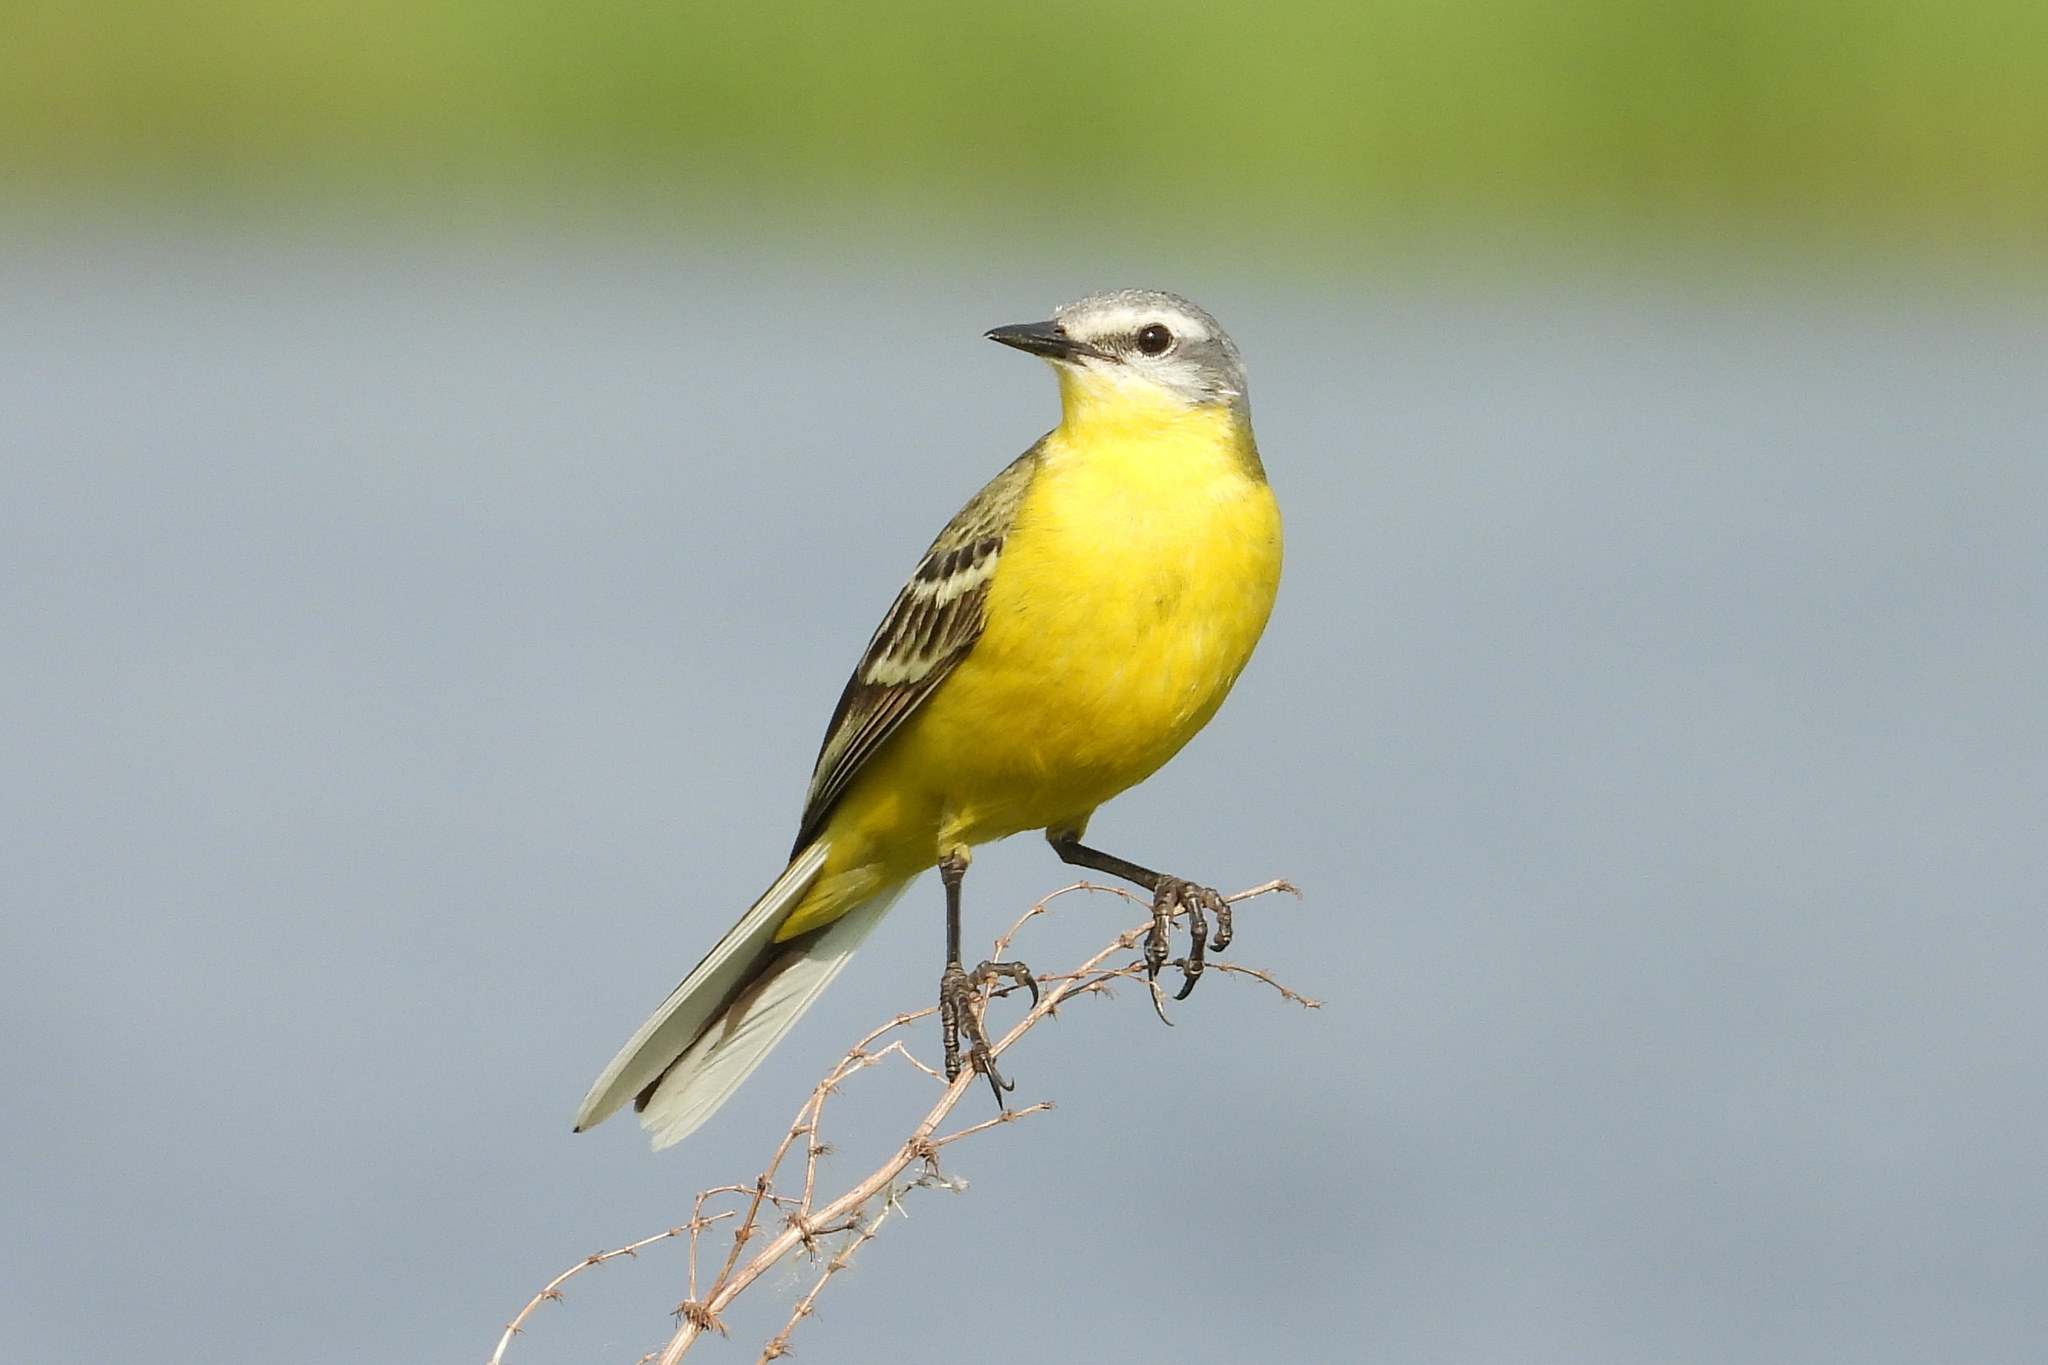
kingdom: Animalia
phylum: Chordata
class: Aves
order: Passeriformes
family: Motacillidae
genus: Motacilla
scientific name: Motacilla flava
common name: Western yellow wagtail
